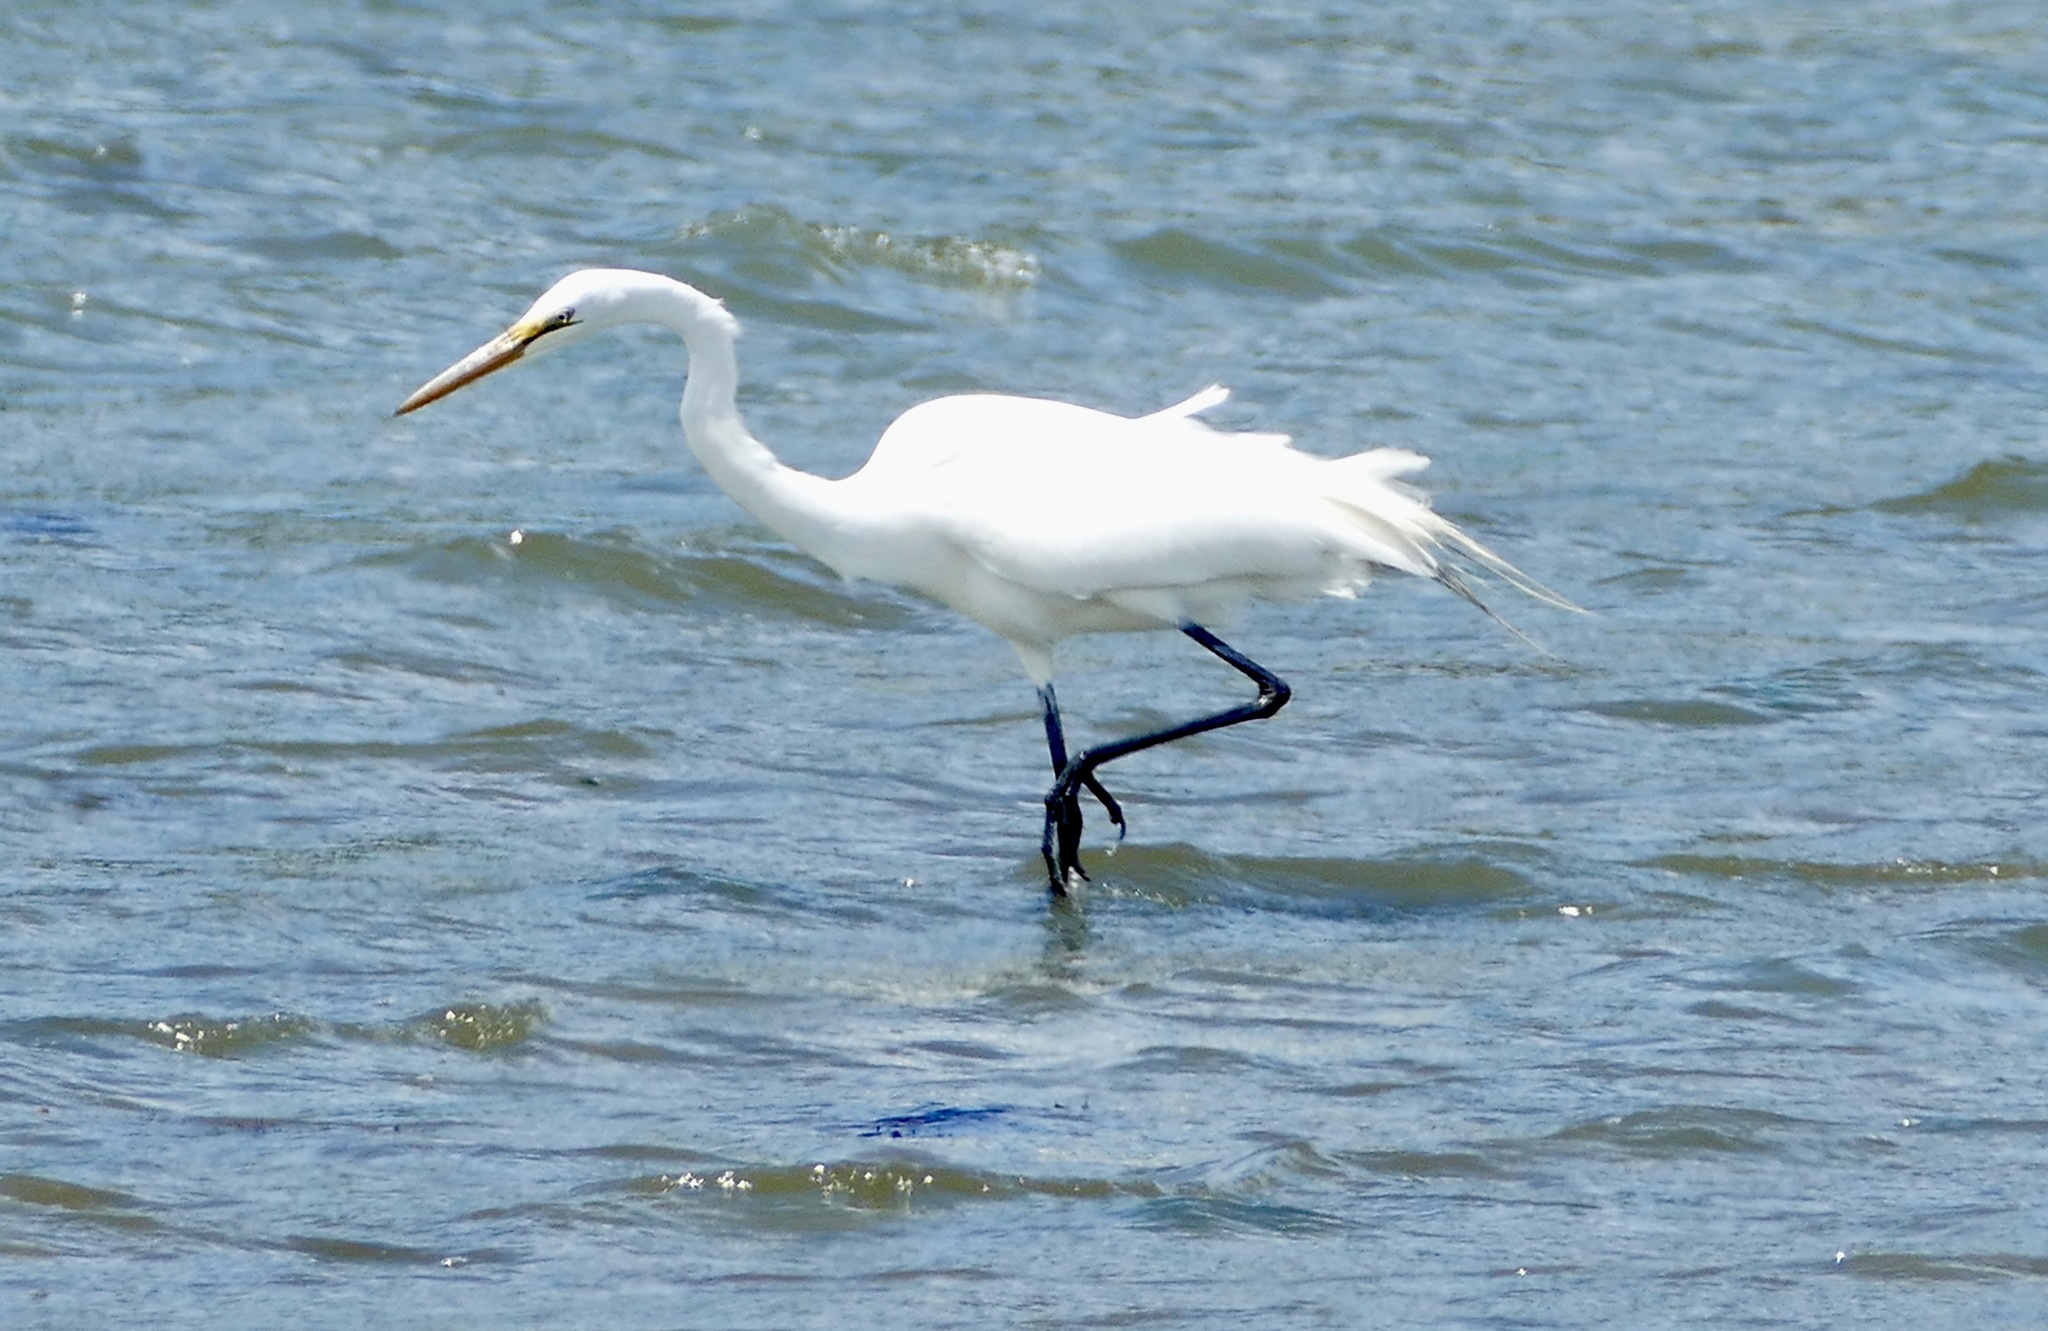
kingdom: Animalia
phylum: Chordata
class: Aves
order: Pelecaniformes
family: Ardeidae
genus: Ardea
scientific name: Ardea alba
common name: Great egret
